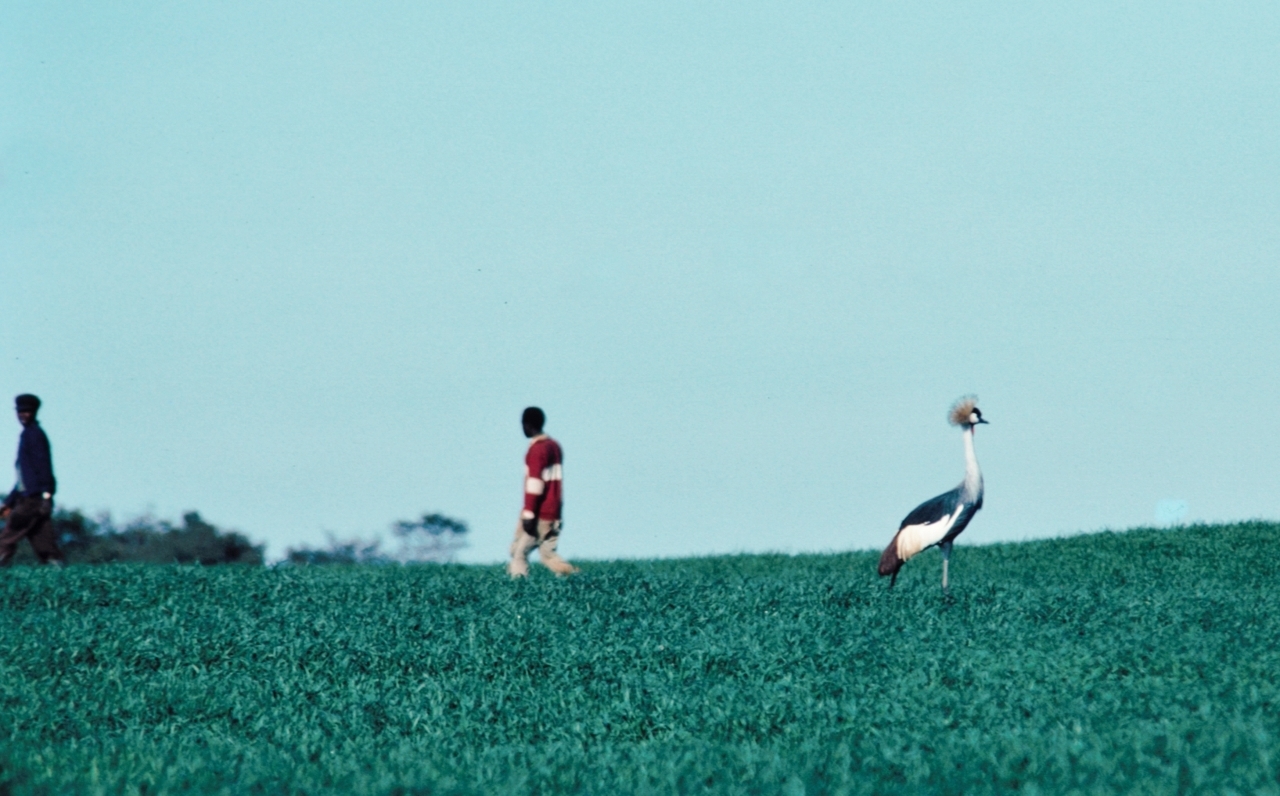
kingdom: Animalia
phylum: Chordata
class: Aves
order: Gruiformes
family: Gruidae
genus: Balearica
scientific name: Balearica regulorum
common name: Grey crowned crane
